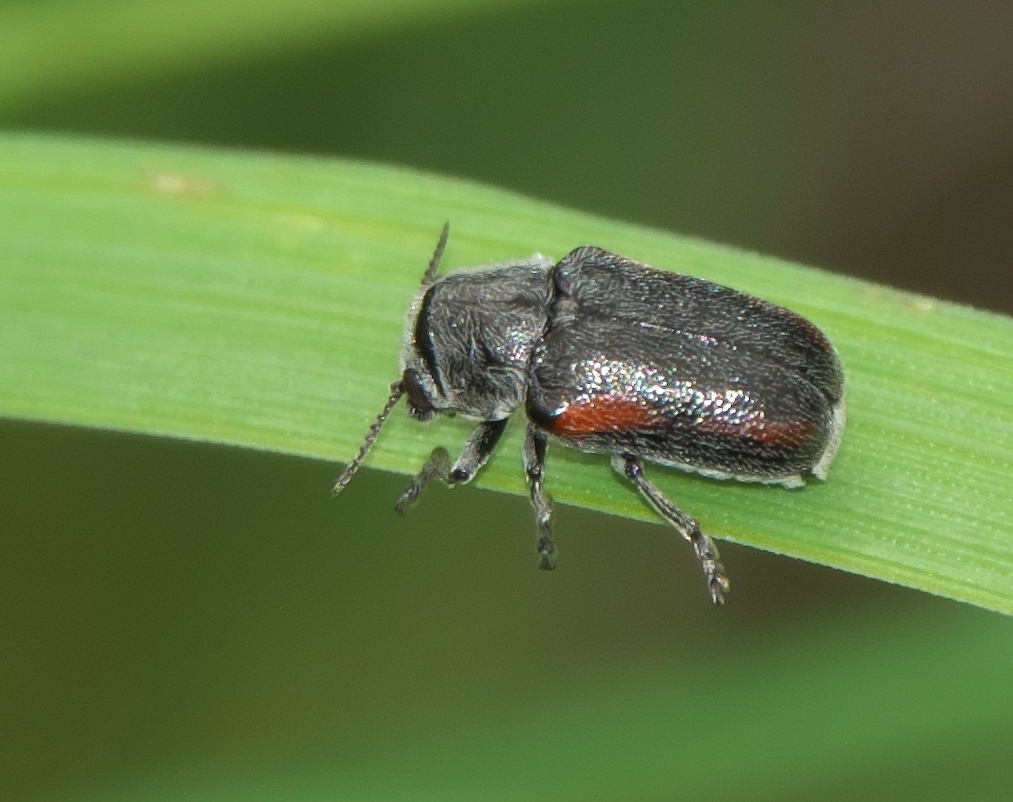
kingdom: Animalia
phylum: Arthropoda
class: Insecta
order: Coleoptera
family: Chrysomelidae
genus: Coleothorpa
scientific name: Coleothorpa vittigera
